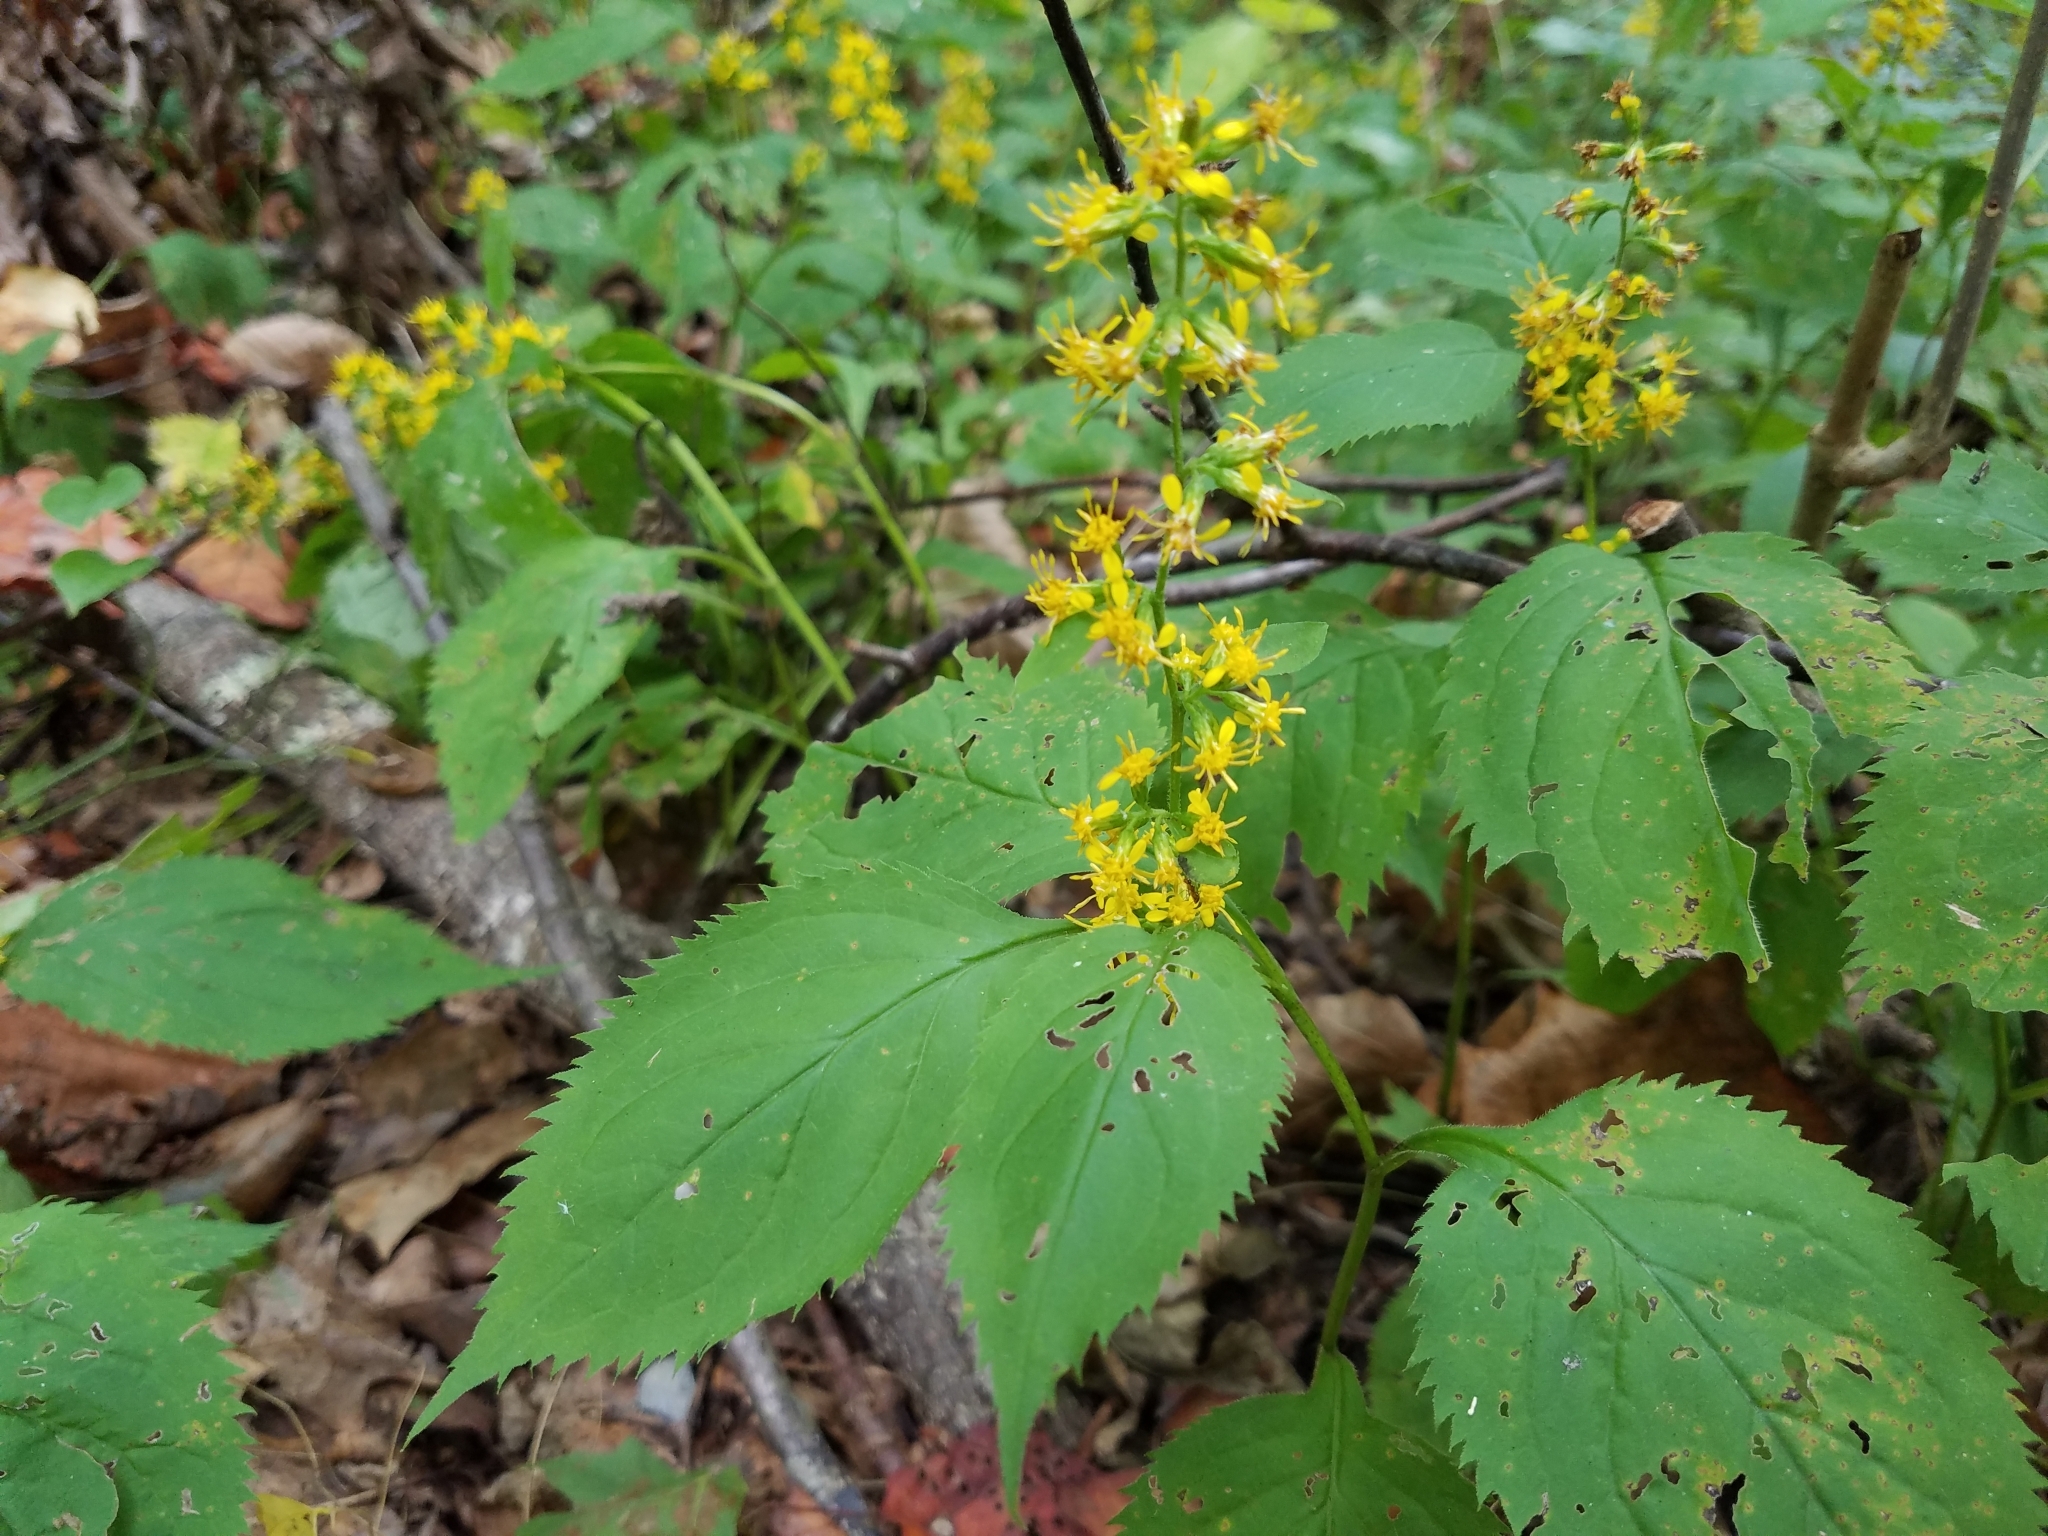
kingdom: Plantae
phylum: Tracheophyta
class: Magnoliopsida
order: Asterales
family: Asteraceae
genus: Solidago
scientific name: Solidago flexicaulis
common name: Zig-zag goldenrod
